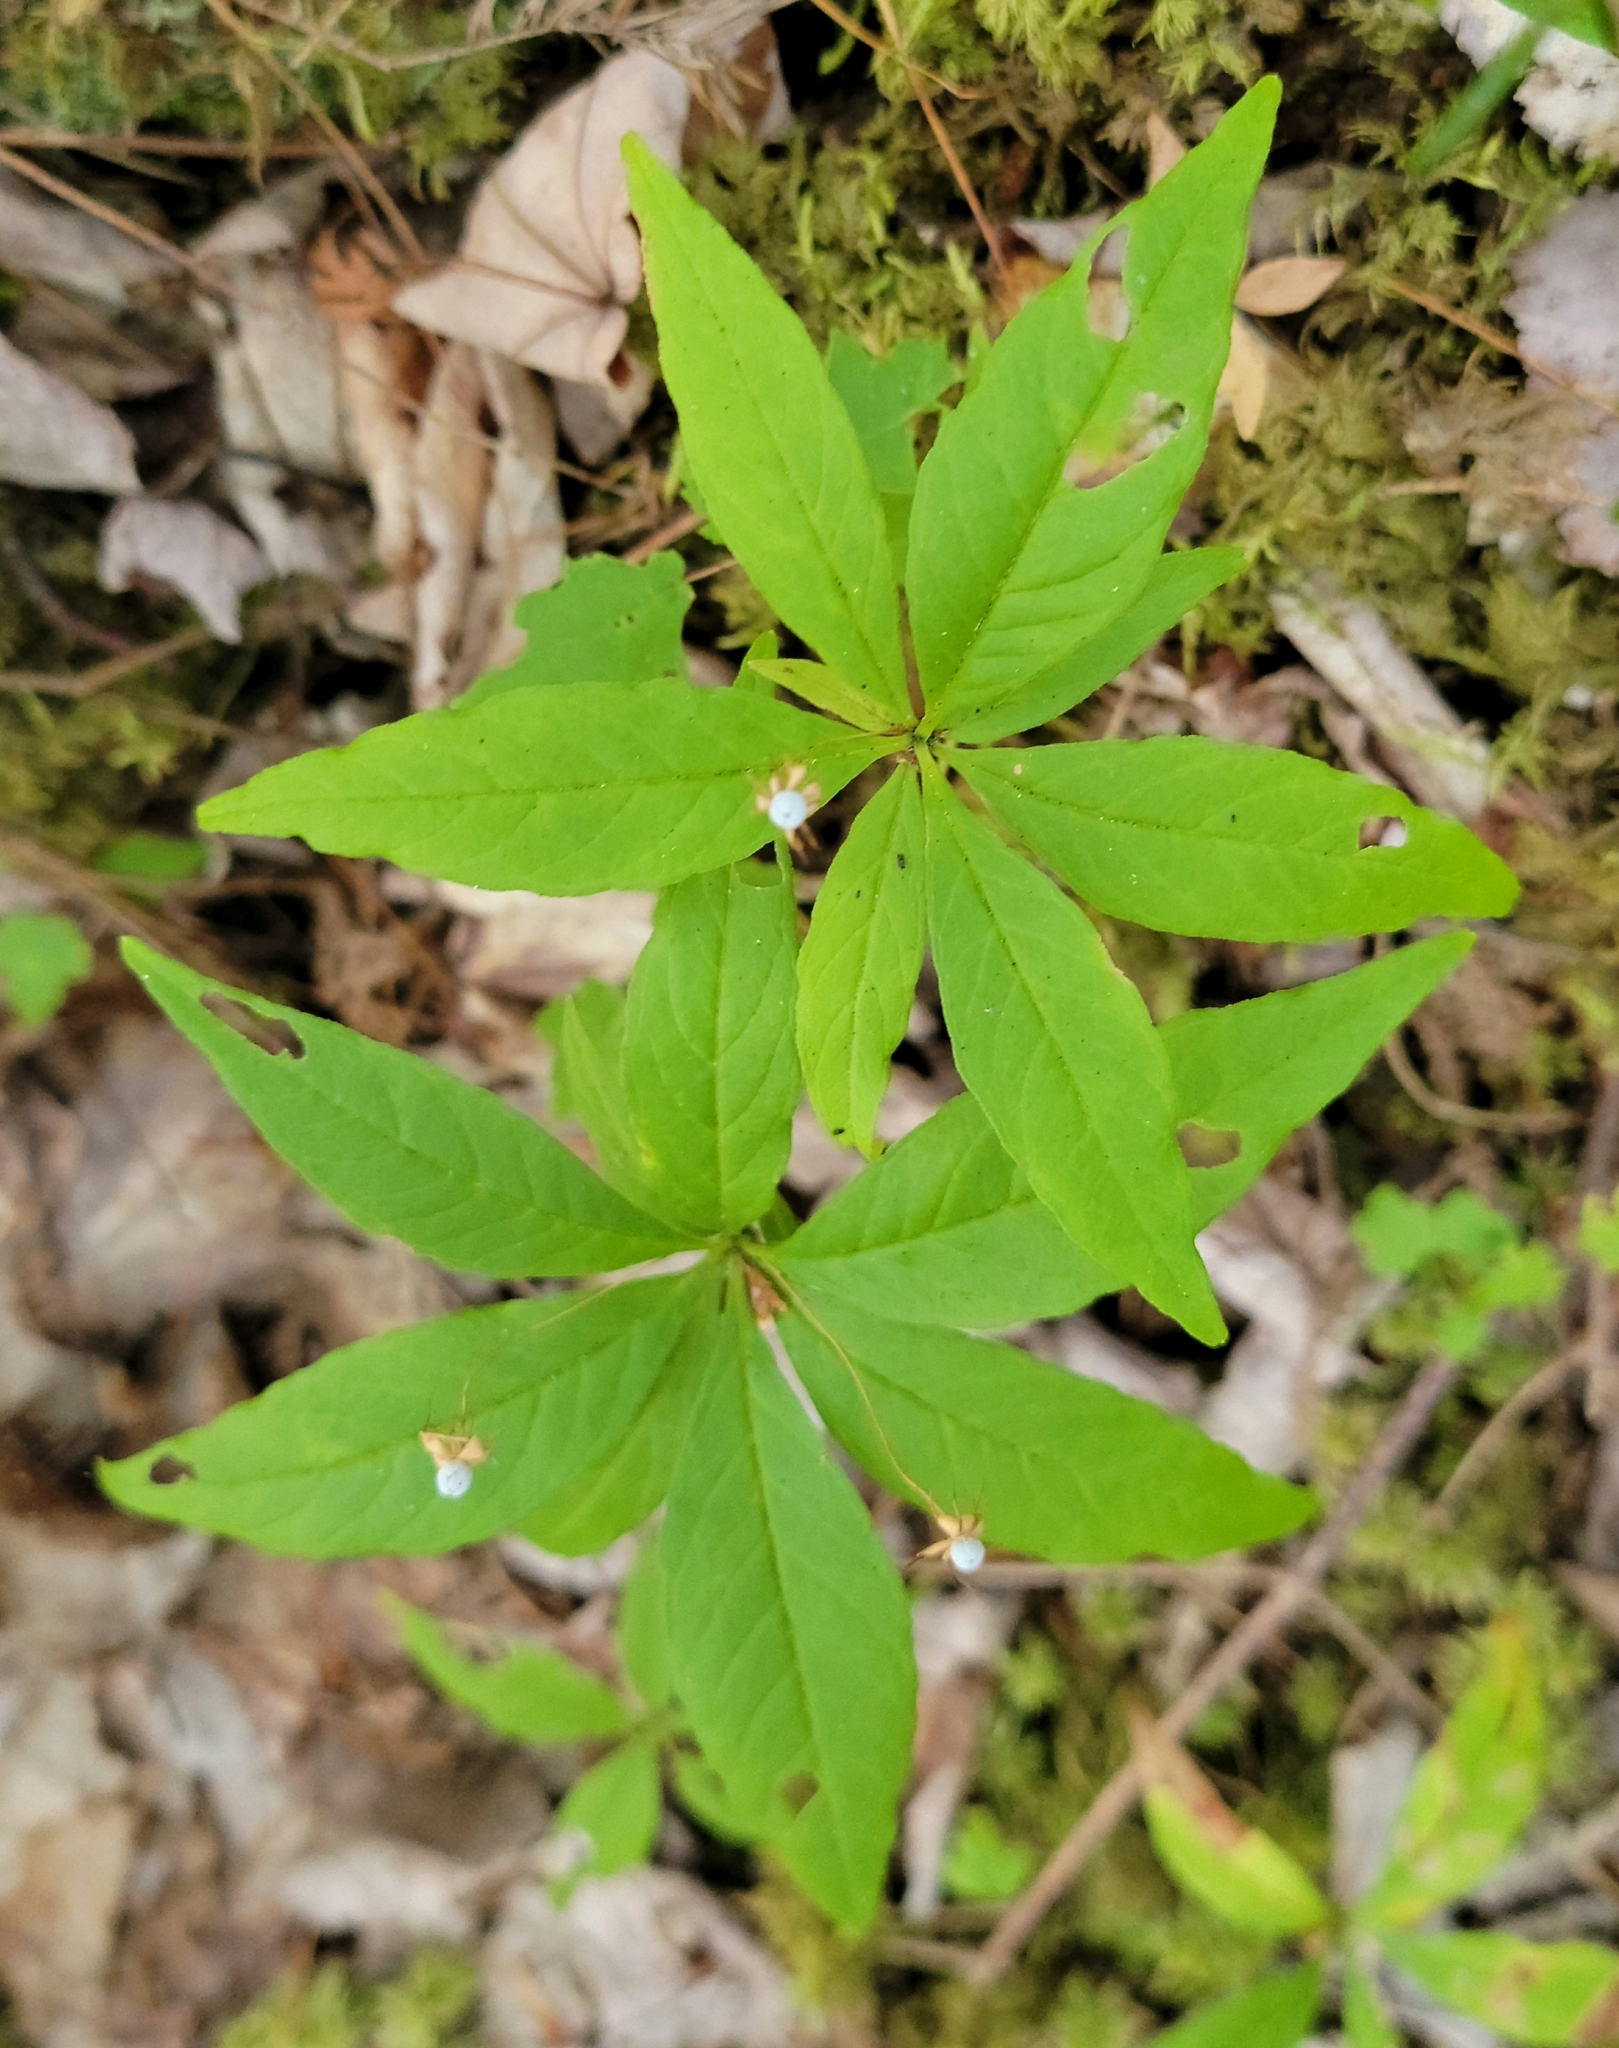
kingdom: Plantae
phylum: Tracheophyta
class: Magnoliopsida
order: Ericales
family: Primulaceae
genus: Lysimachia
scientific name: Lysimachia borealis
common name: American starflower
